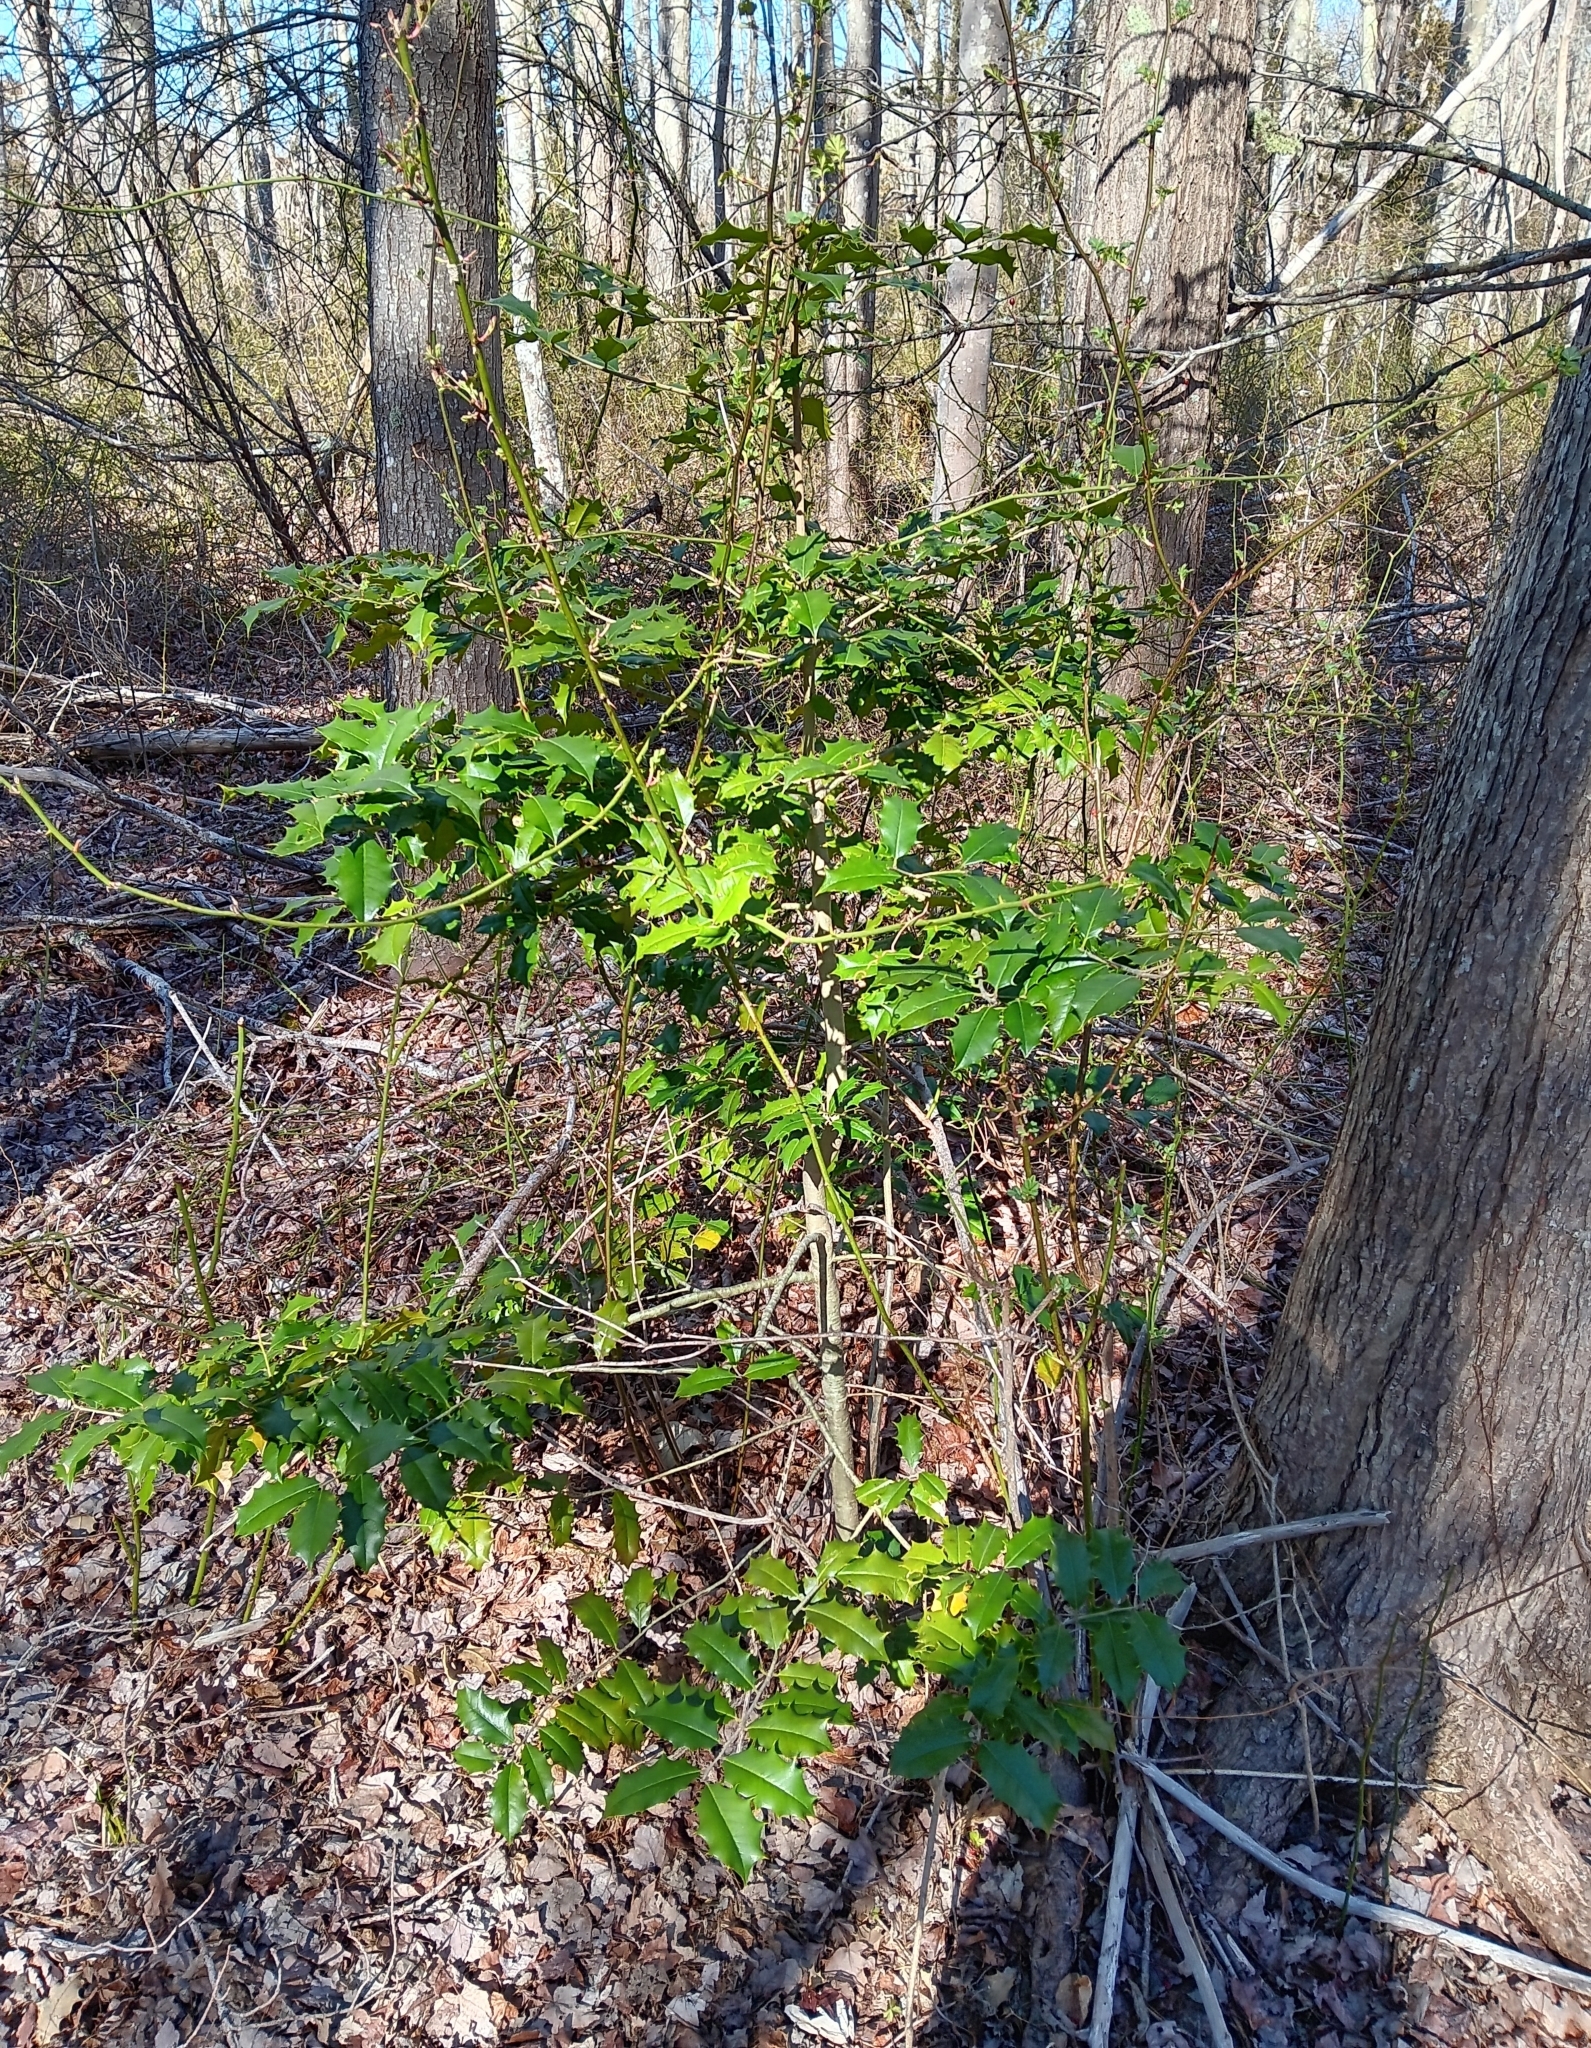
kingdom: Plantae
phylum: Tracheophyta
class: Magnoliopsida
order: Aquifoliales
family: Aquifoliaceae
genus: Ilex
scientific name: Ilex opaca
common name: American holly
